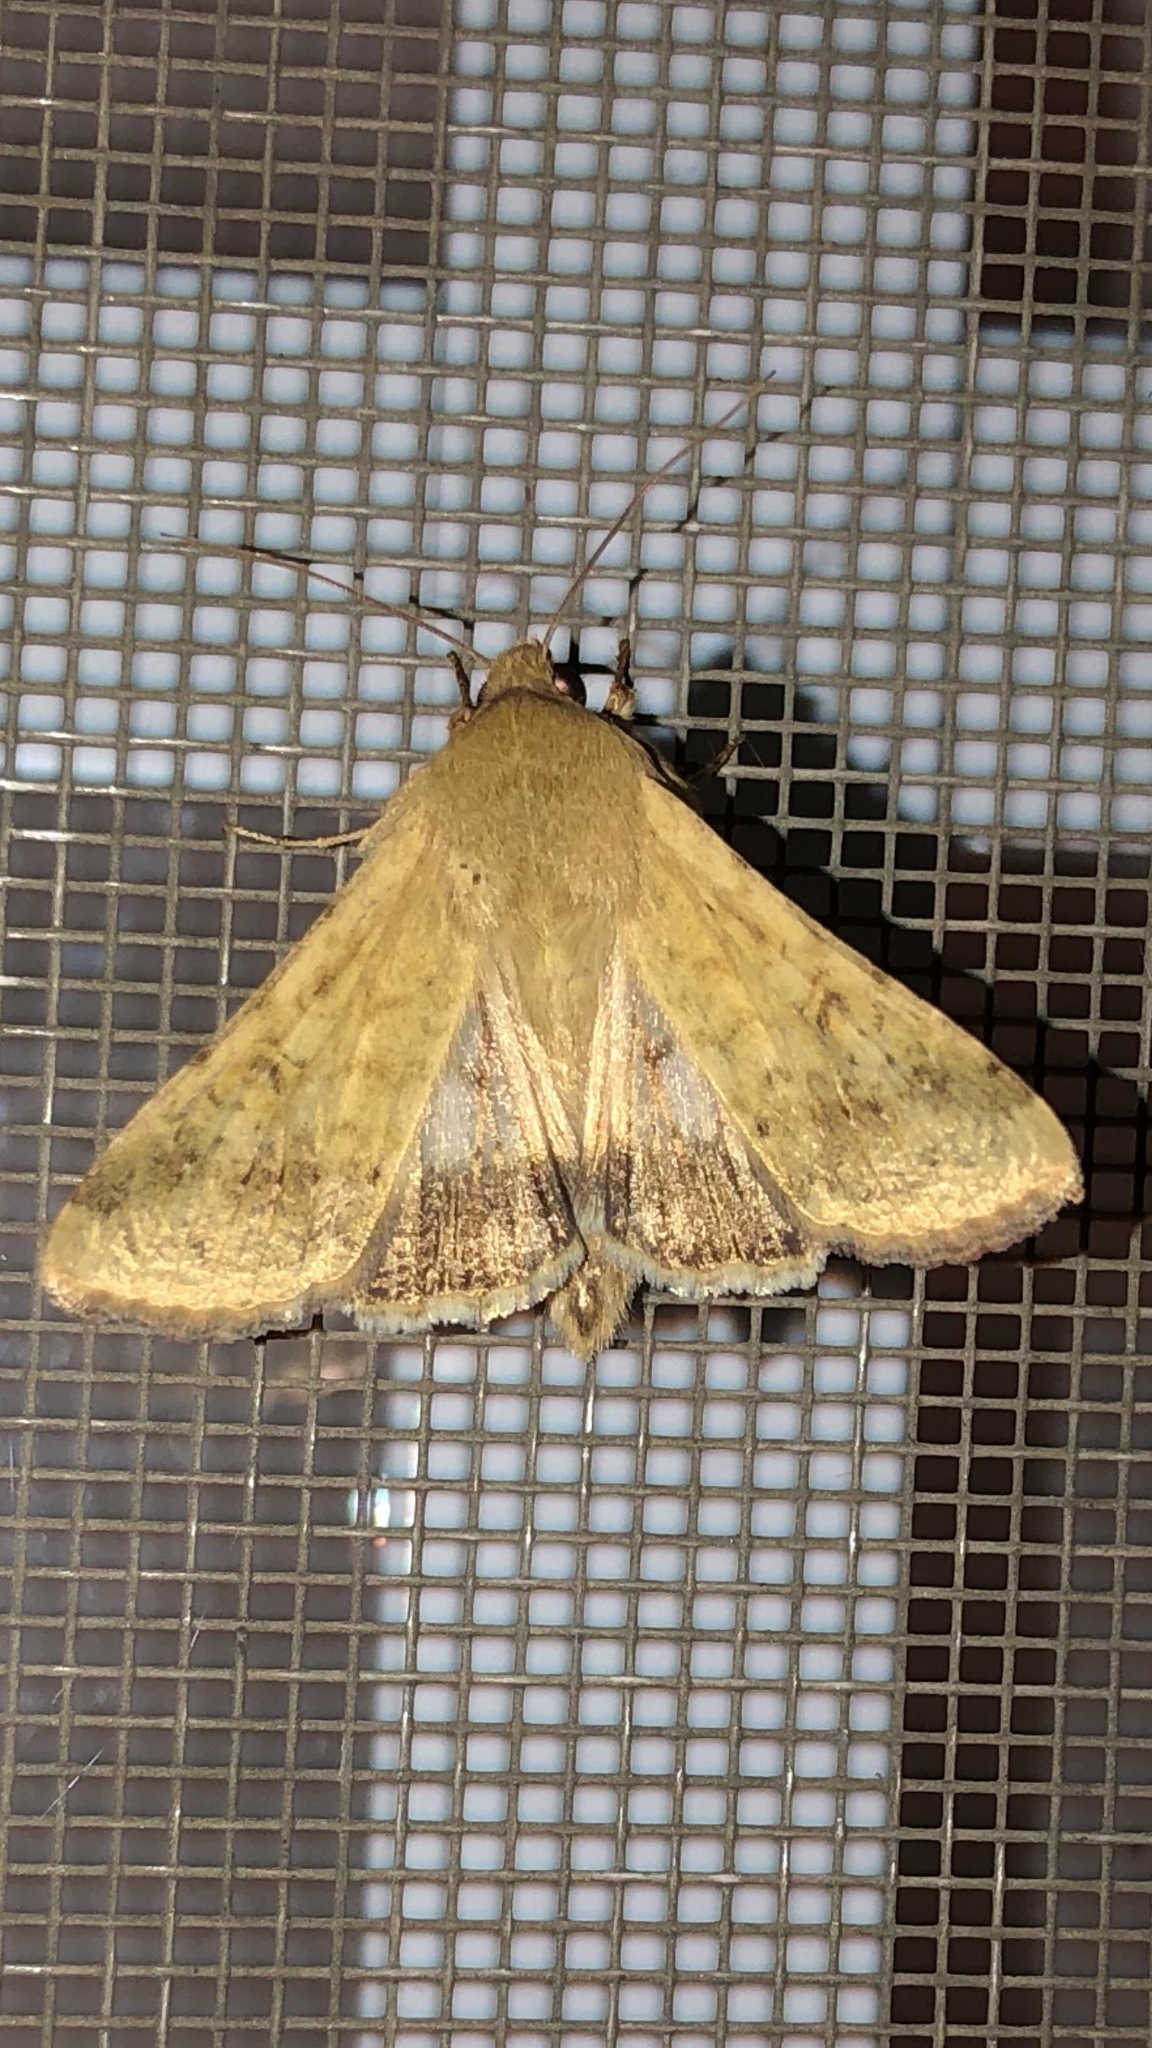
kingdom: Animalia
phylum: Arthropoda
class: Insecta
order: Lepidoptera
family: Noctuidae
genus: Helicoverpa
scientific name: Helicoverpa zea
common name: Bollworm
